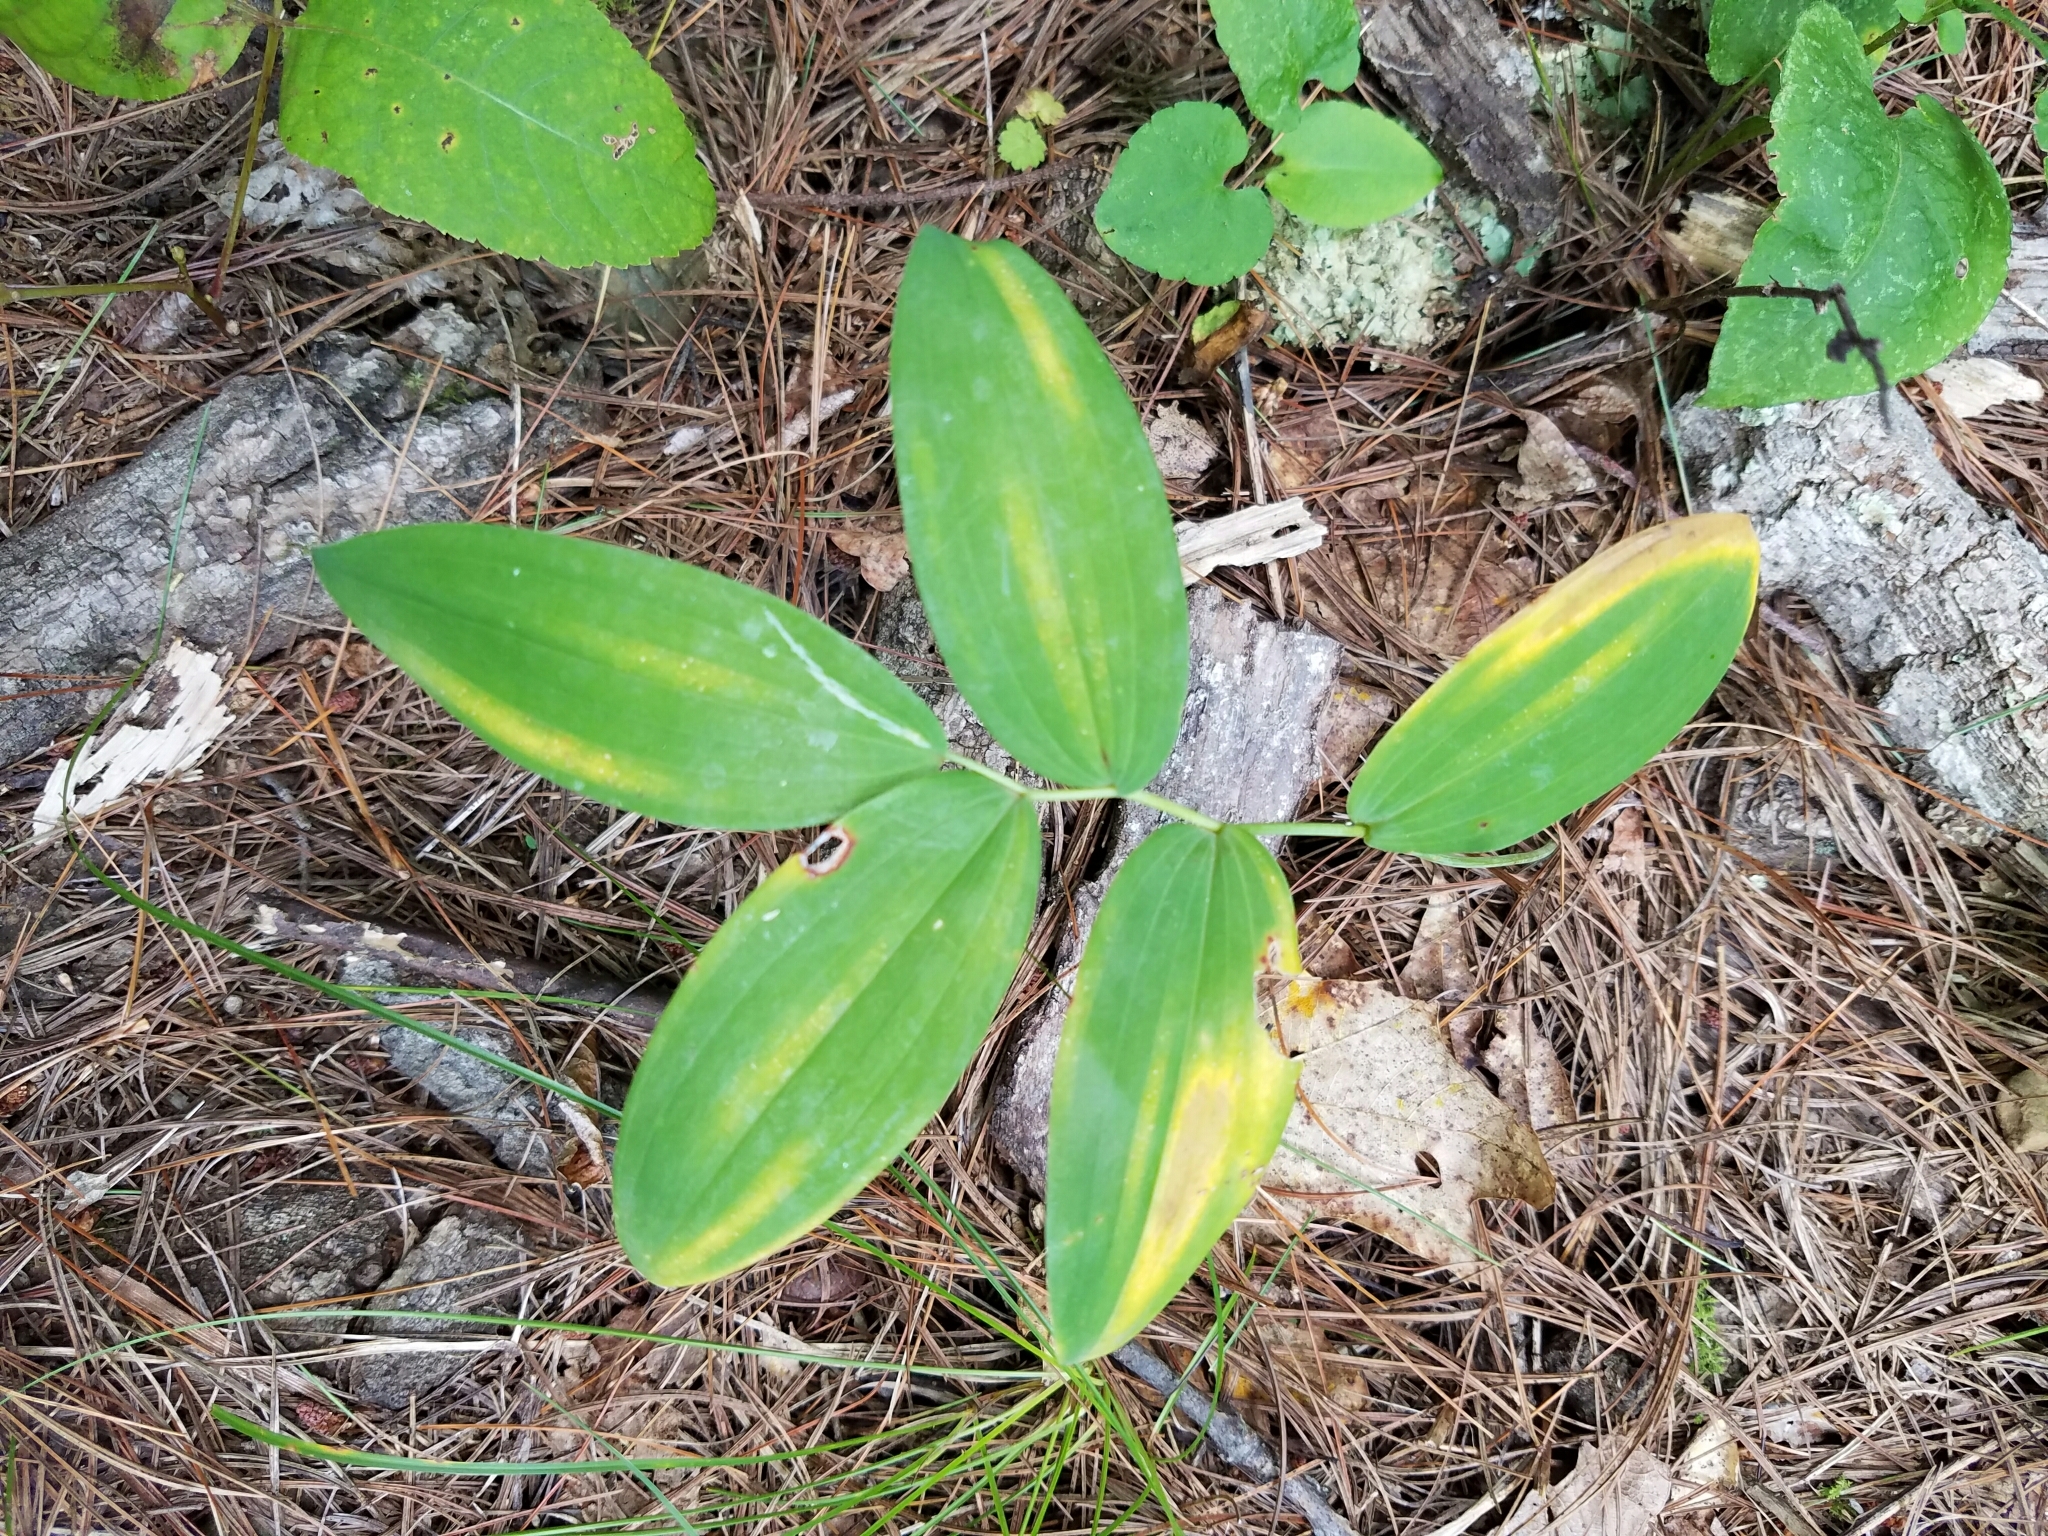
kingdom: Plantae
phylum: Tracheophyta
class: Liliopsida
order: Asparagales
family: Asparagaceae
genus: Polygonatum
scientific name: Polygonatum biflorum
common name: American solomon's-seal
